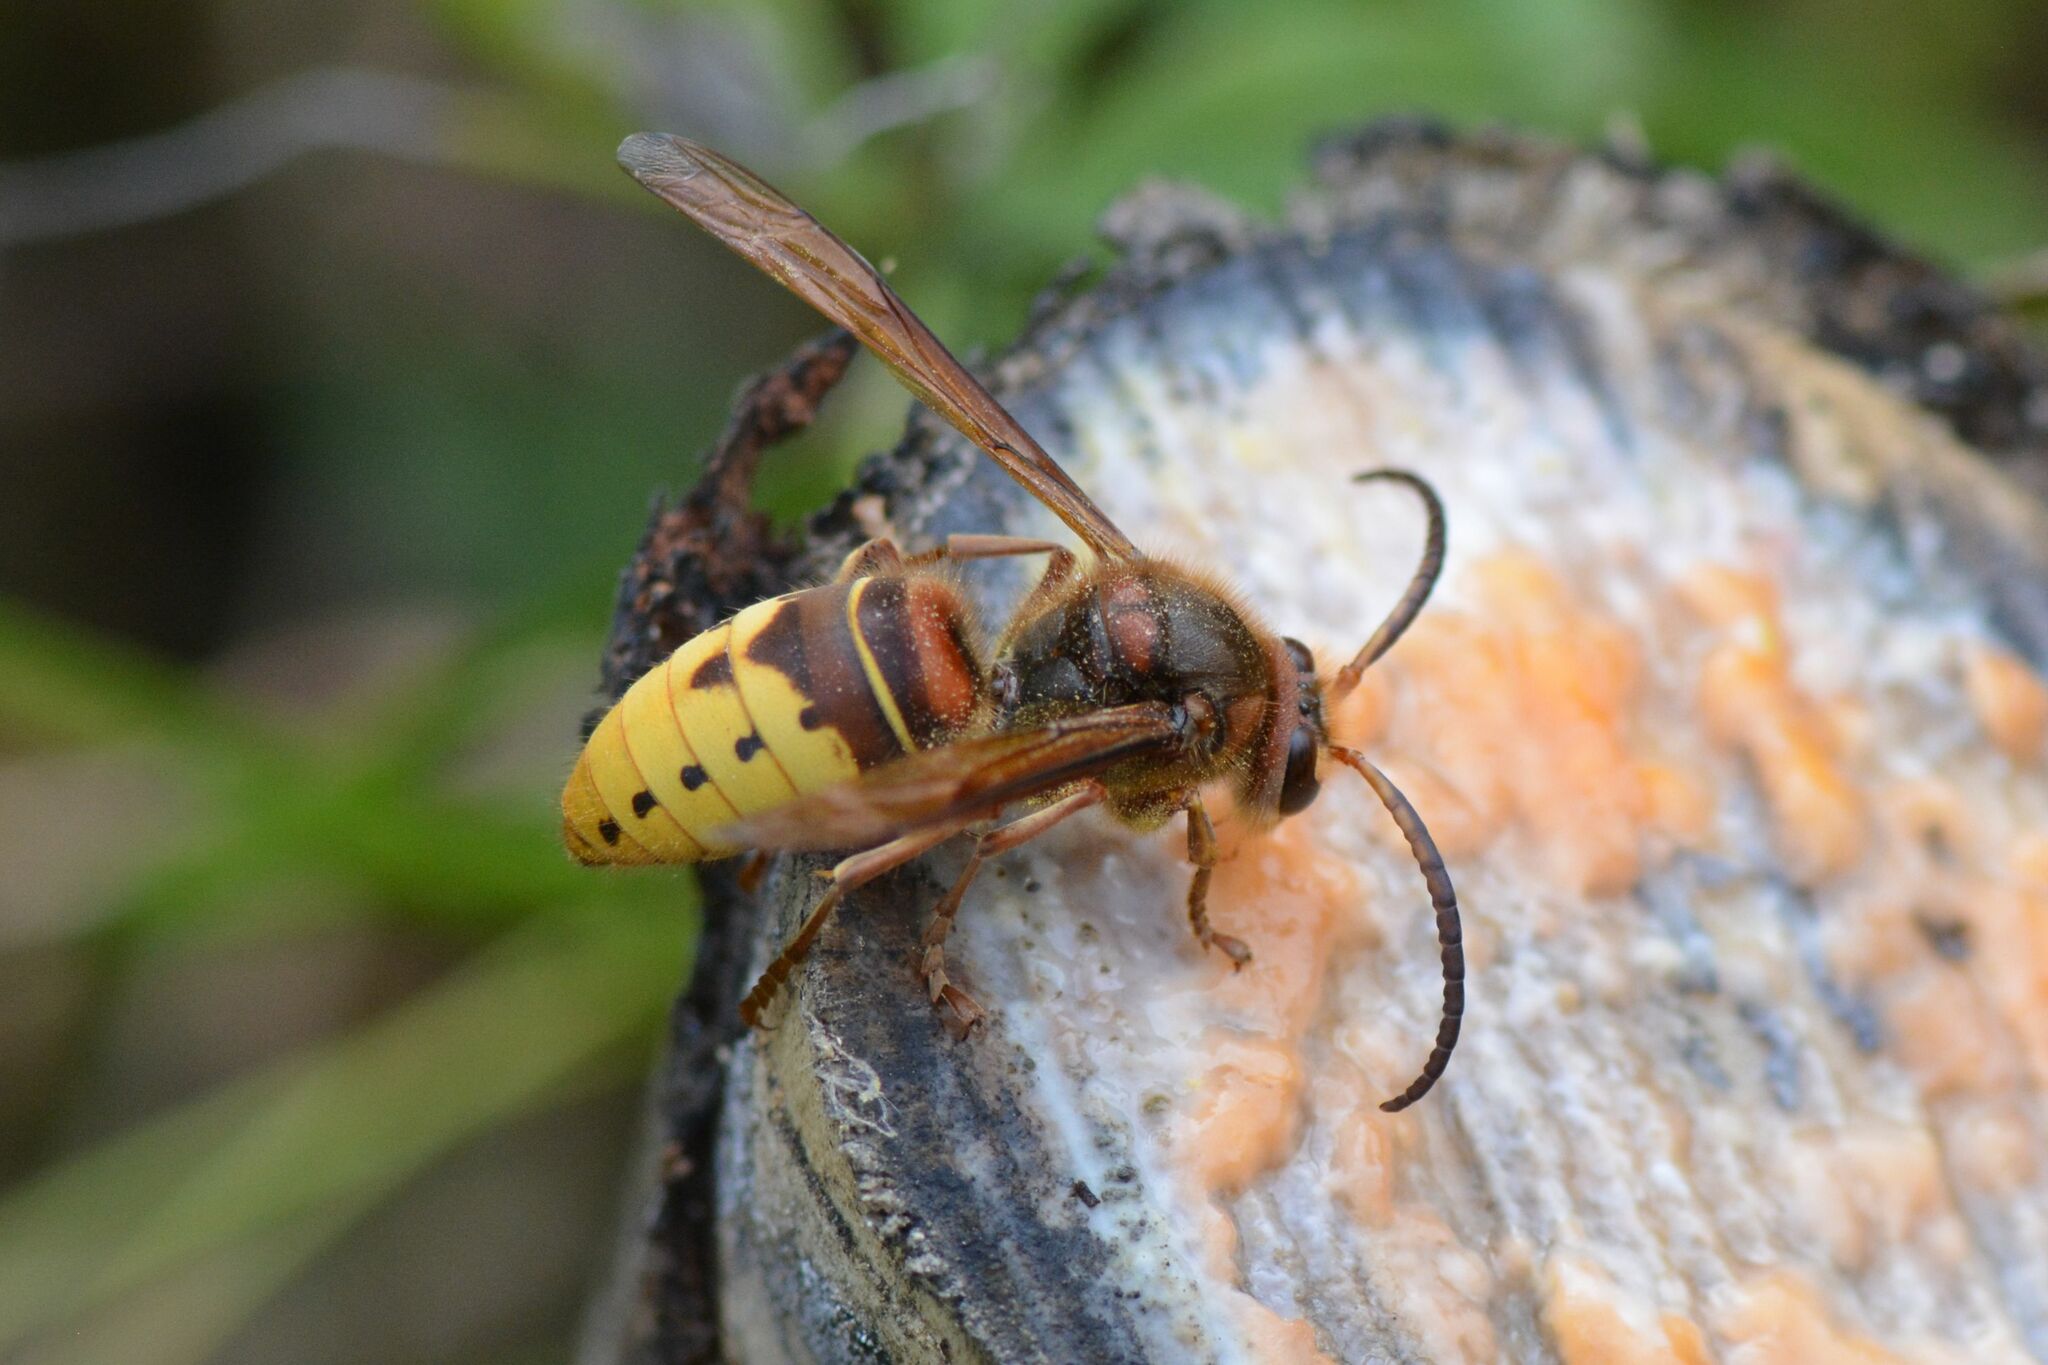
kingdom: Animalia
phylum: Arthropoda
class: Insecta
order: Hymenoptera
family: Vespidae
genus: Vespa
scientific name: Vespa crabro
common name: Hornet
